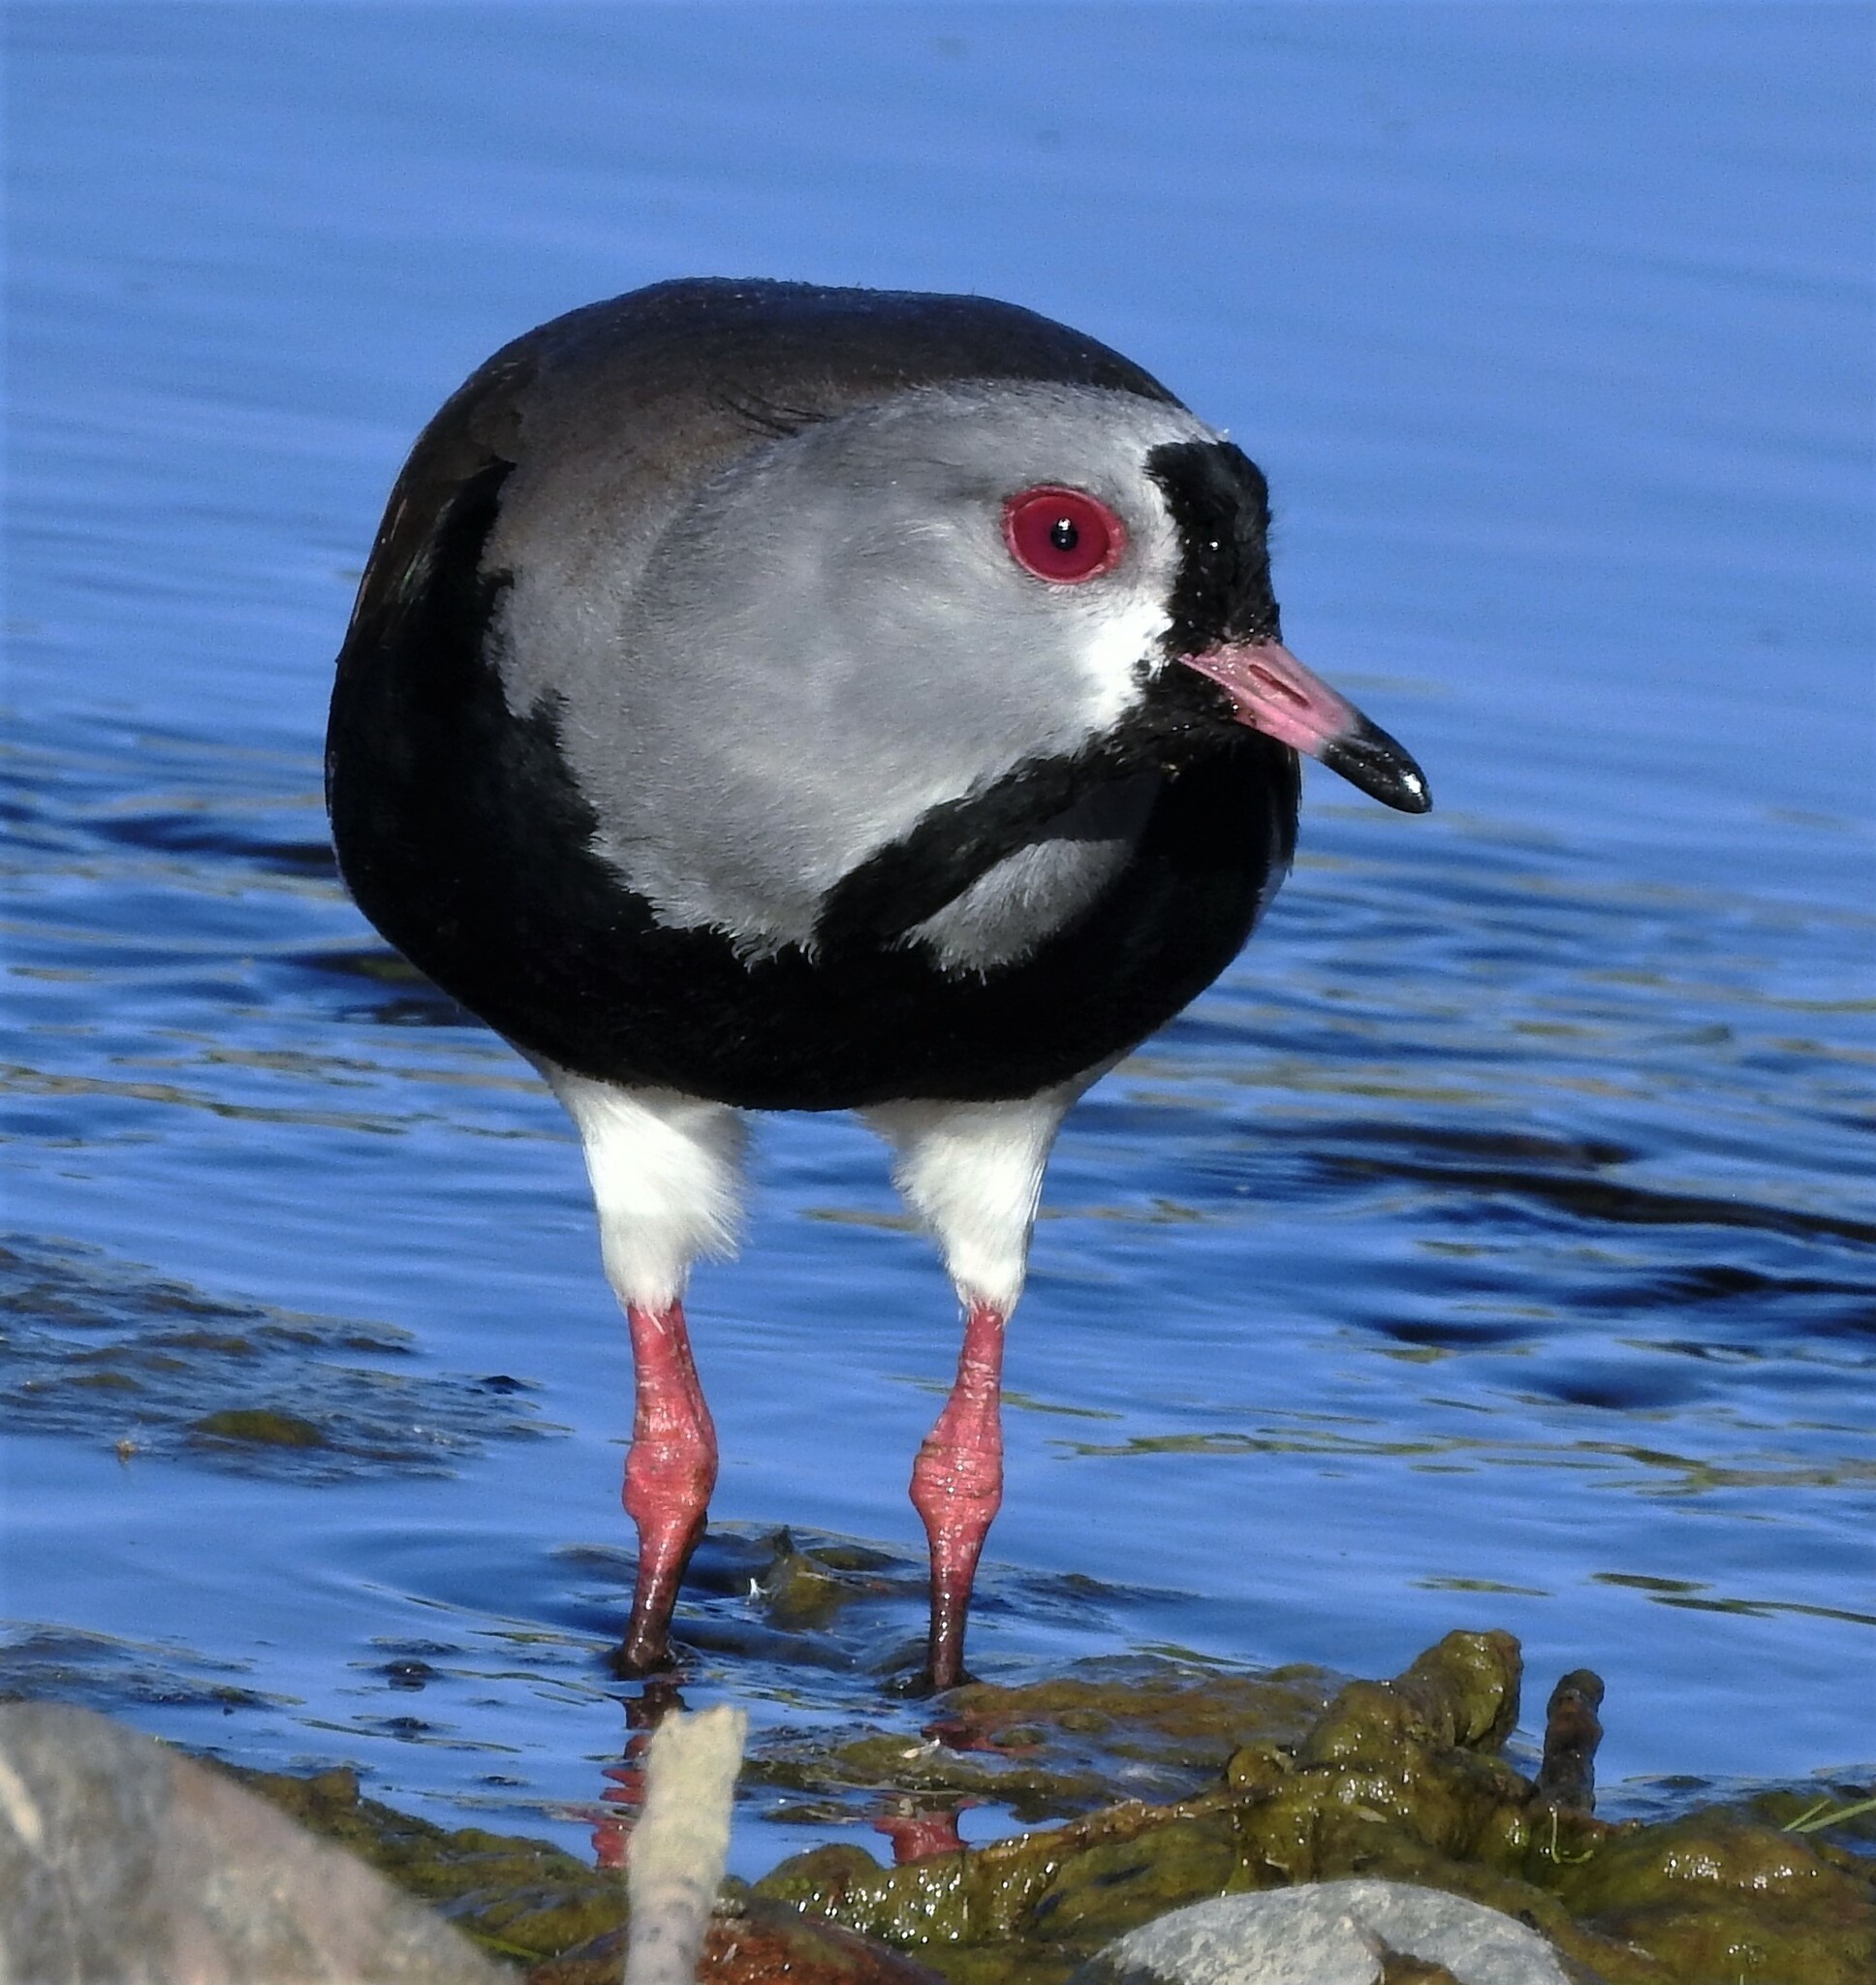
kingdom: Animalia
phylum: Chordata
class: Aves
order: Charadriiformes
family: Charadriidae
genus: Vanellus
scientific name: Vanellus chilensis
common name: Southern lapwing
